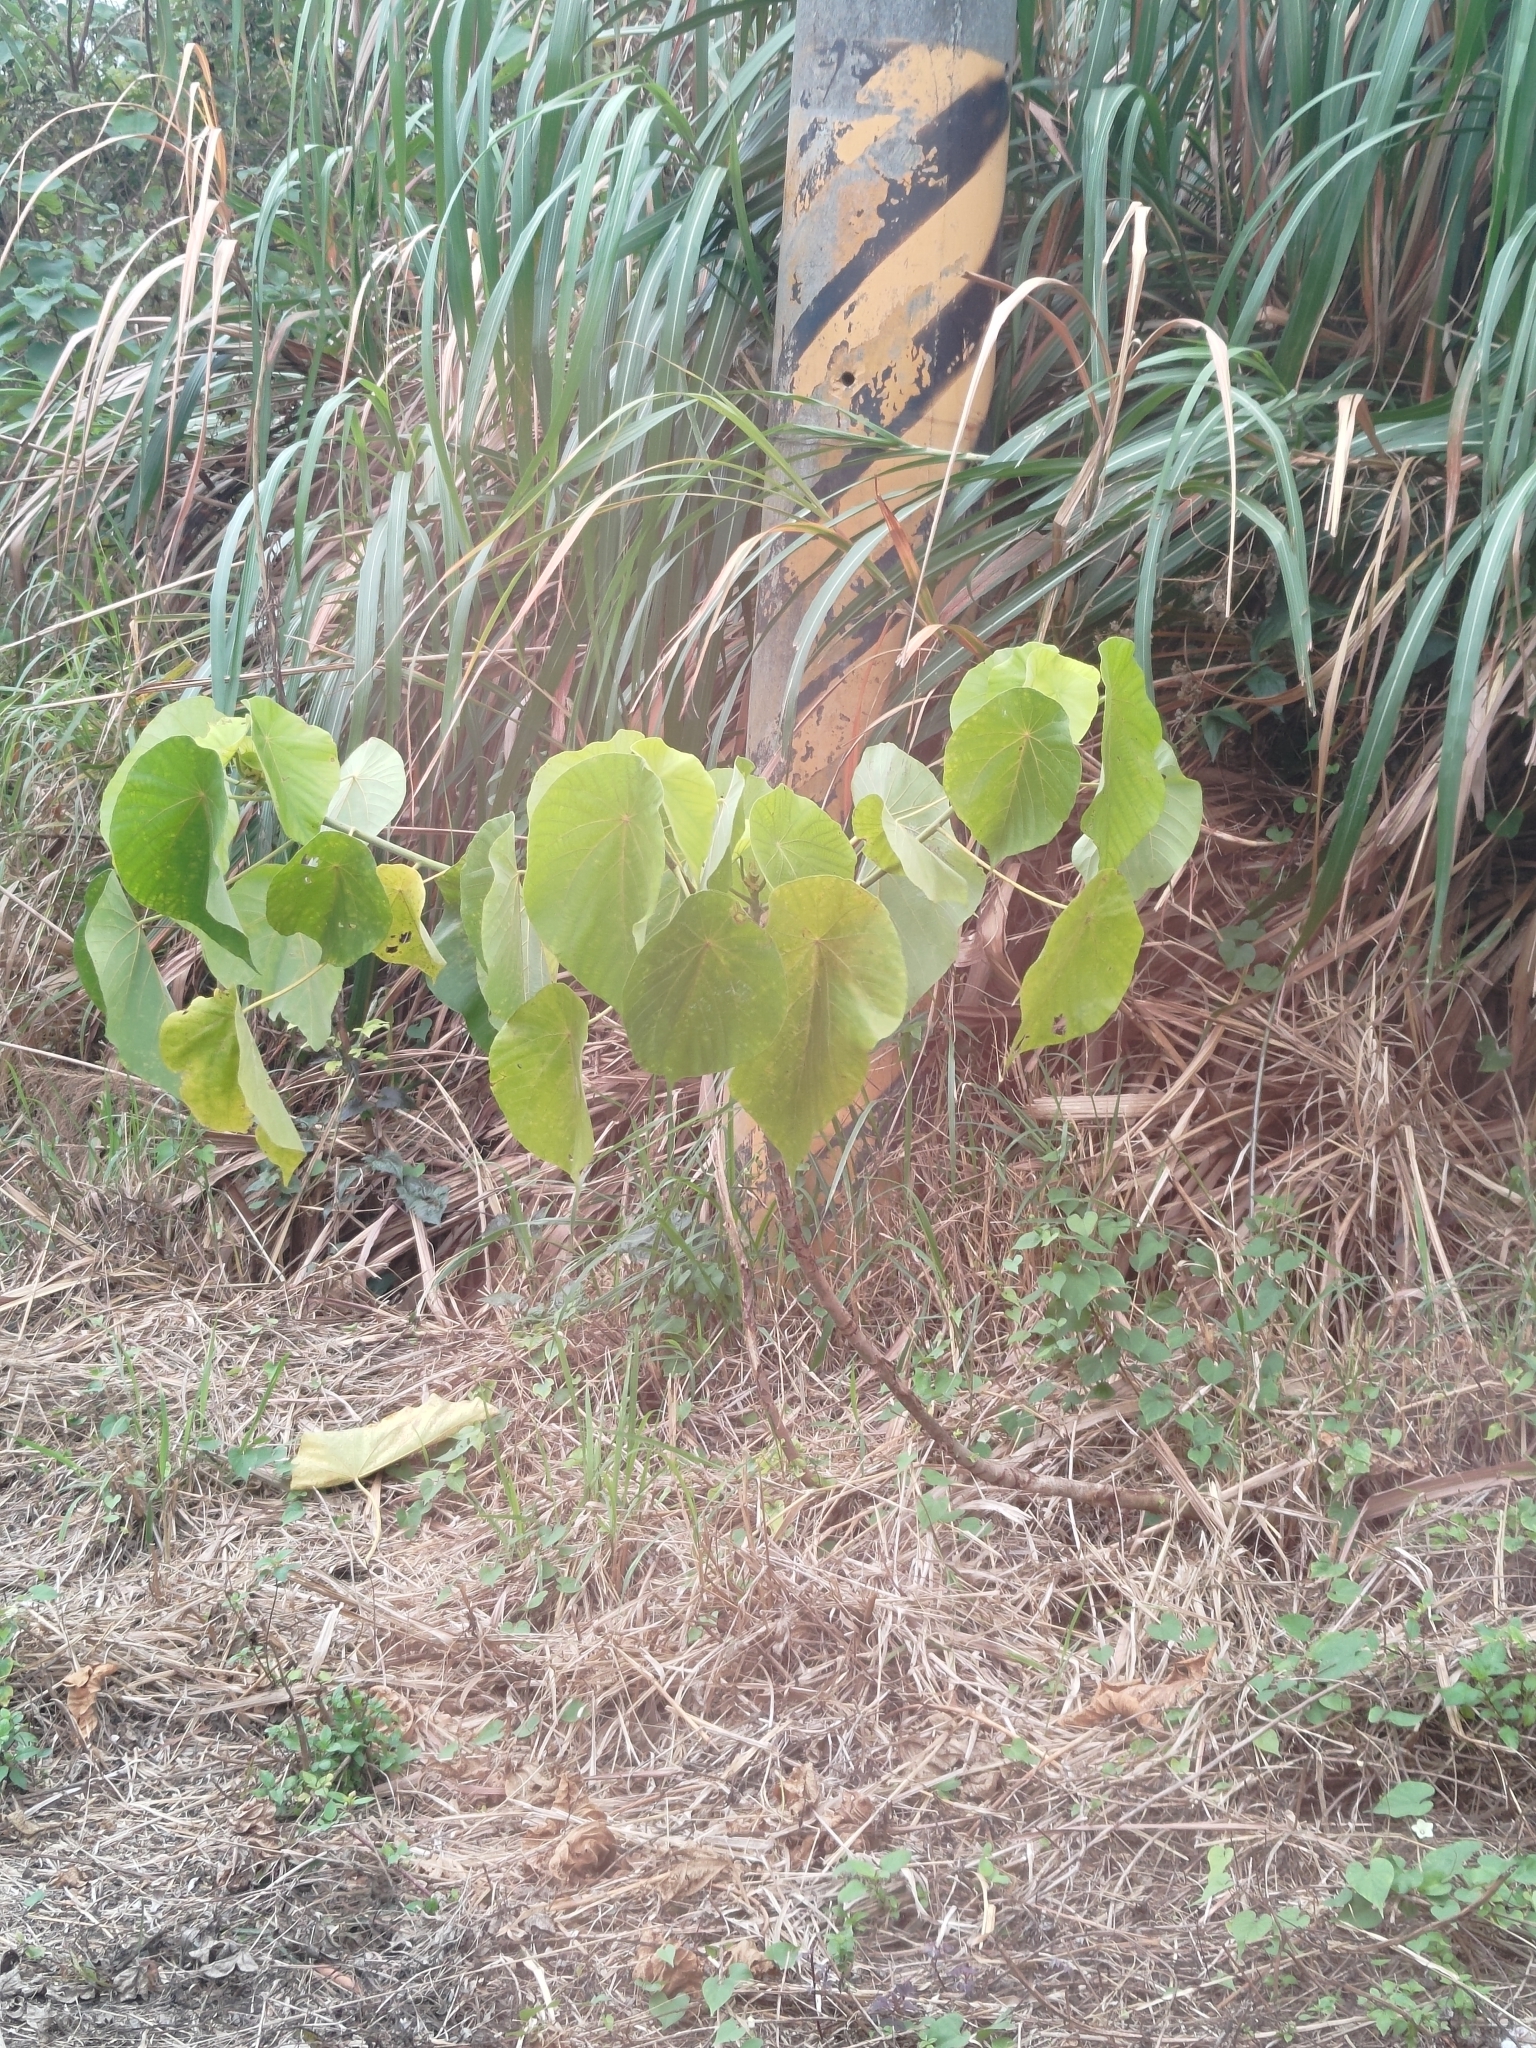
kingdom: Plantae
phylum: Tracheophyta
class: Magnoliopsida
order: Malpighiales
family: Euphorbiaceae
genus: Macaranga
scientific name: Macaranga tanarius
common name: Parasol leaf tree
